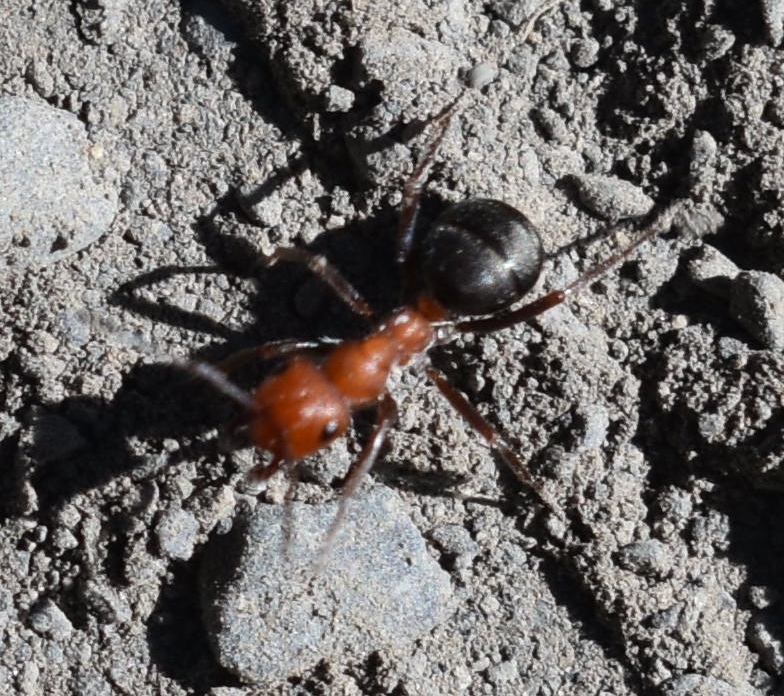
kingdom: Animalia
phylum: Arthropoda
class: Insecta
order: Hymenoptera
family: Formicidae
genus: Formica
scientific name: Formica obscuripes
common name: Western thatching ant
